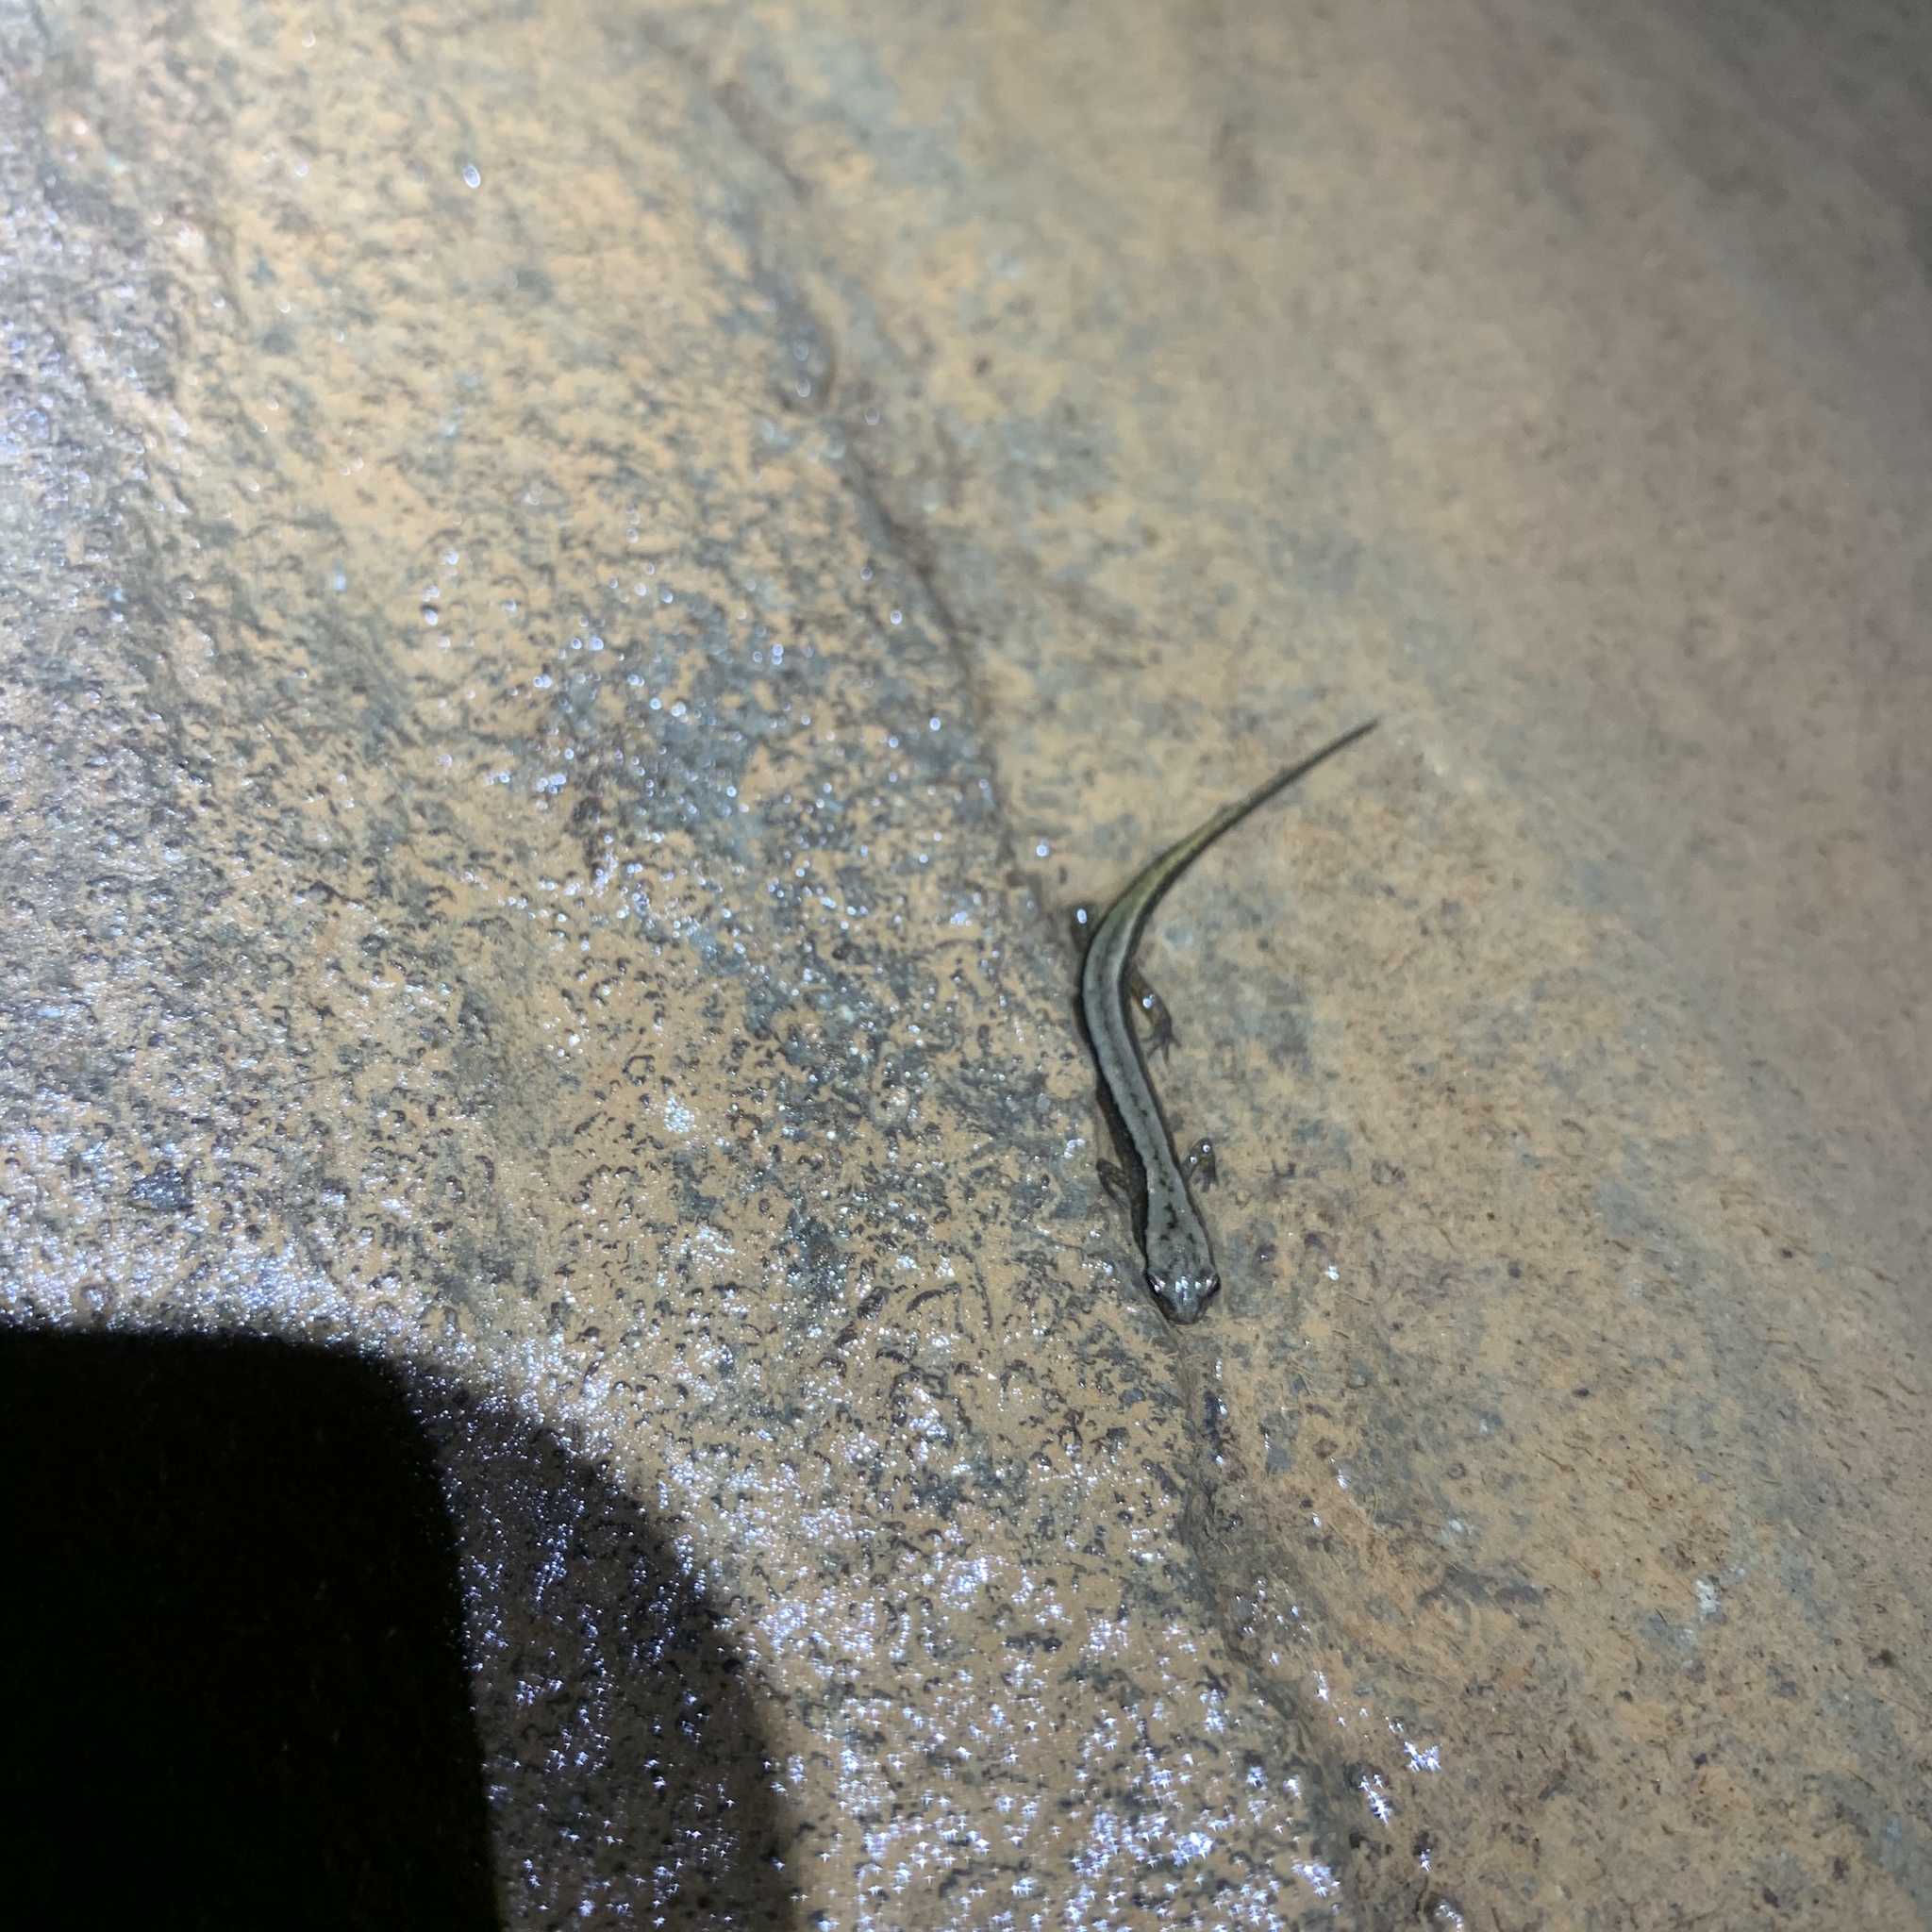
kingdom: Animalia
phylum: Chordata
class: Amphibia
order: Caudata
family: Plethodontidae
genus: Eurycea
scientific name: Eurycea cirrigera
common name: Southern two-lined salamander
